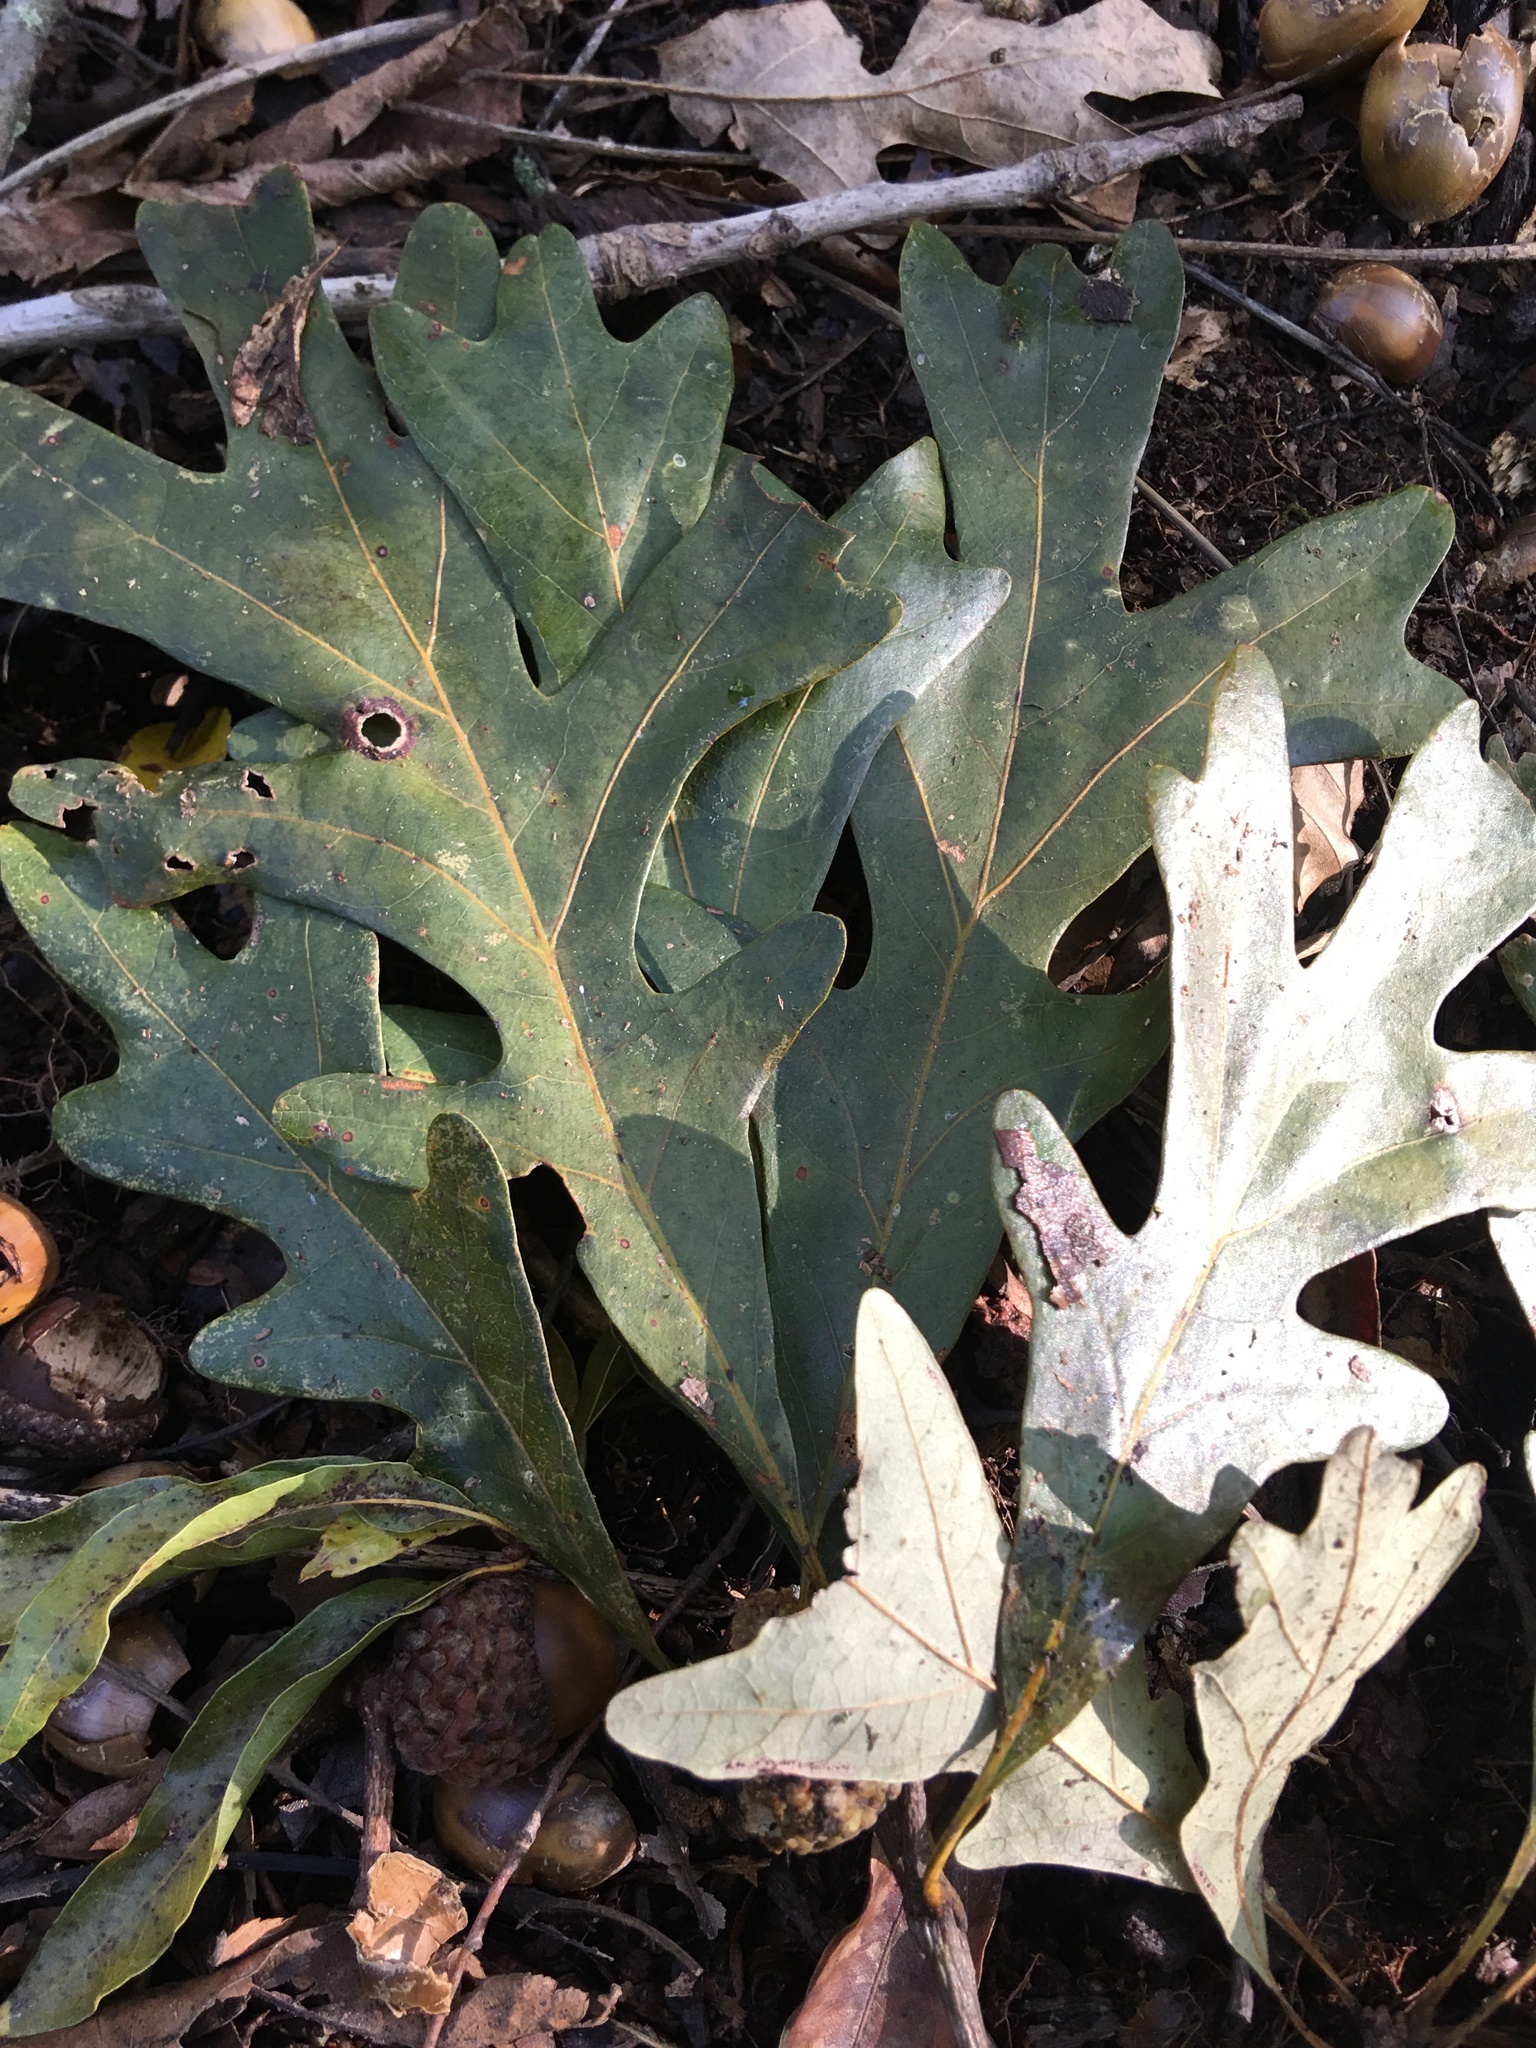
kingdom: Plantae
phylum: Tracheophyta
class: Magnoliopsida
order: Fagales
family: Fagaceae
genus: Quercus
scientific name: Quercus alba
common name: White oak
